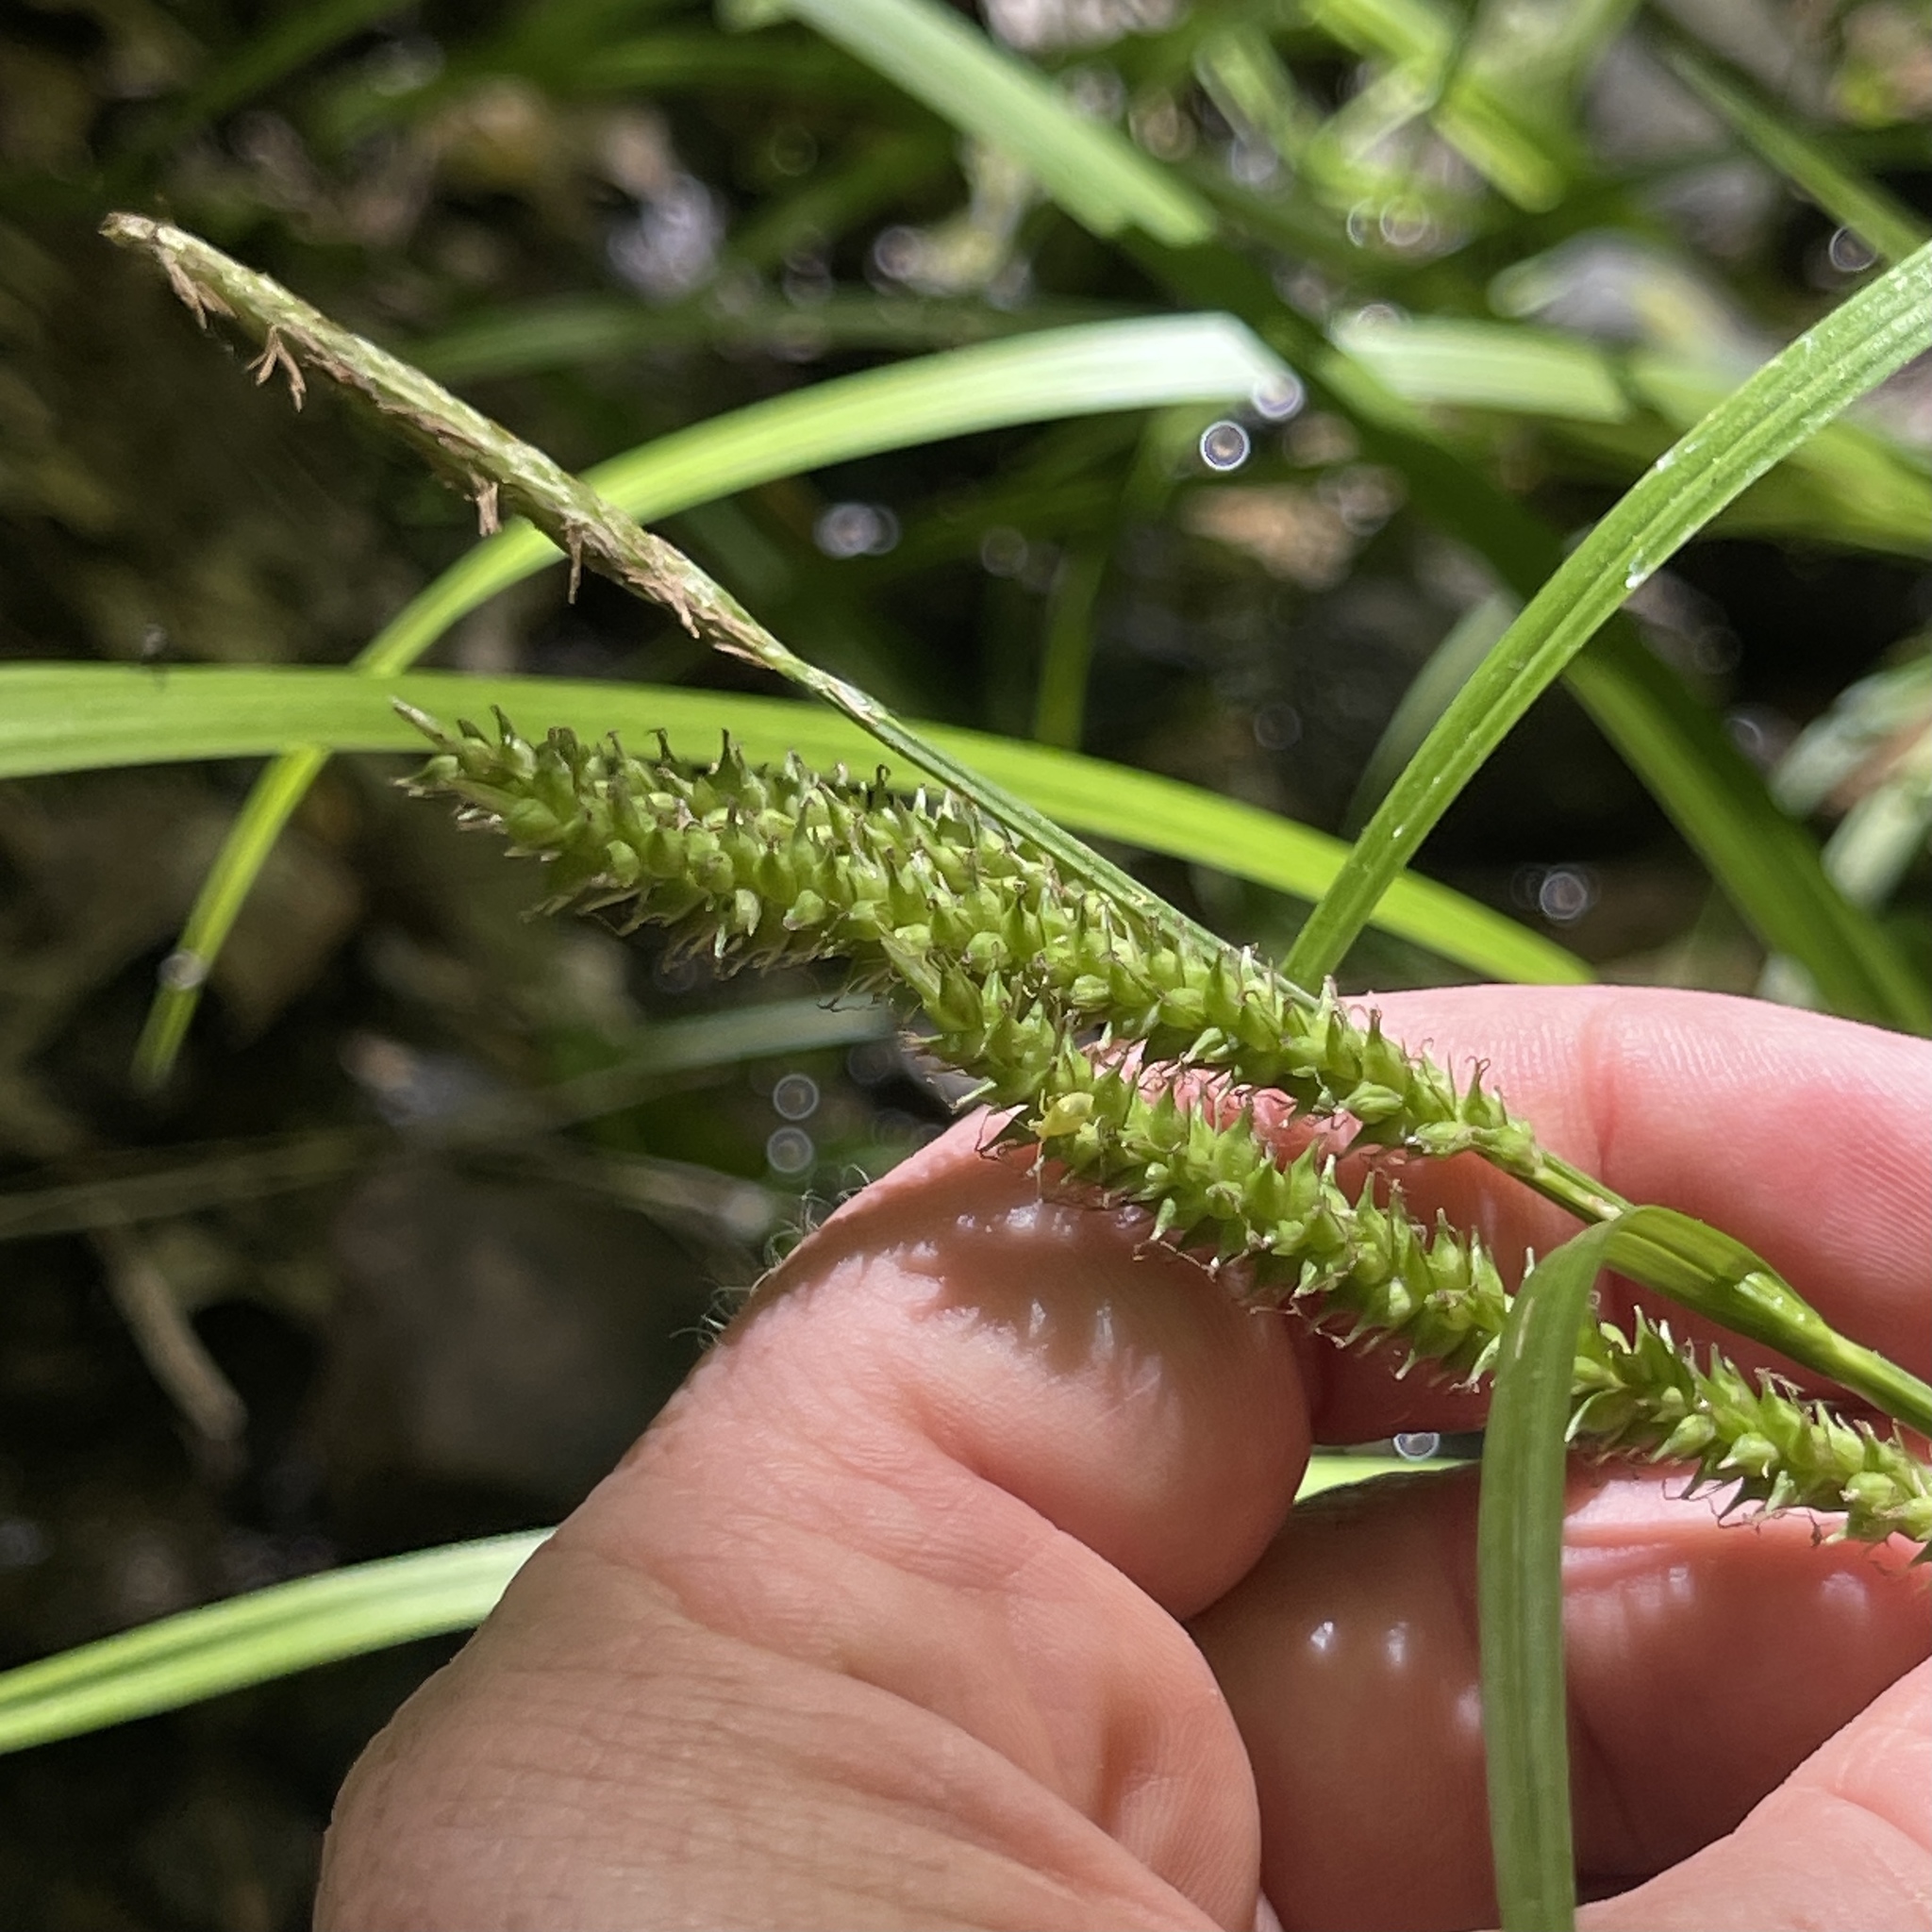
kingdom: Plantae
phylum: Tracheophyta
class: Liliopsida
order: Poales
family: Cyperaceae
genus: Carex
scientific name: Carex scabrata
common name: Eastern rough sedge
